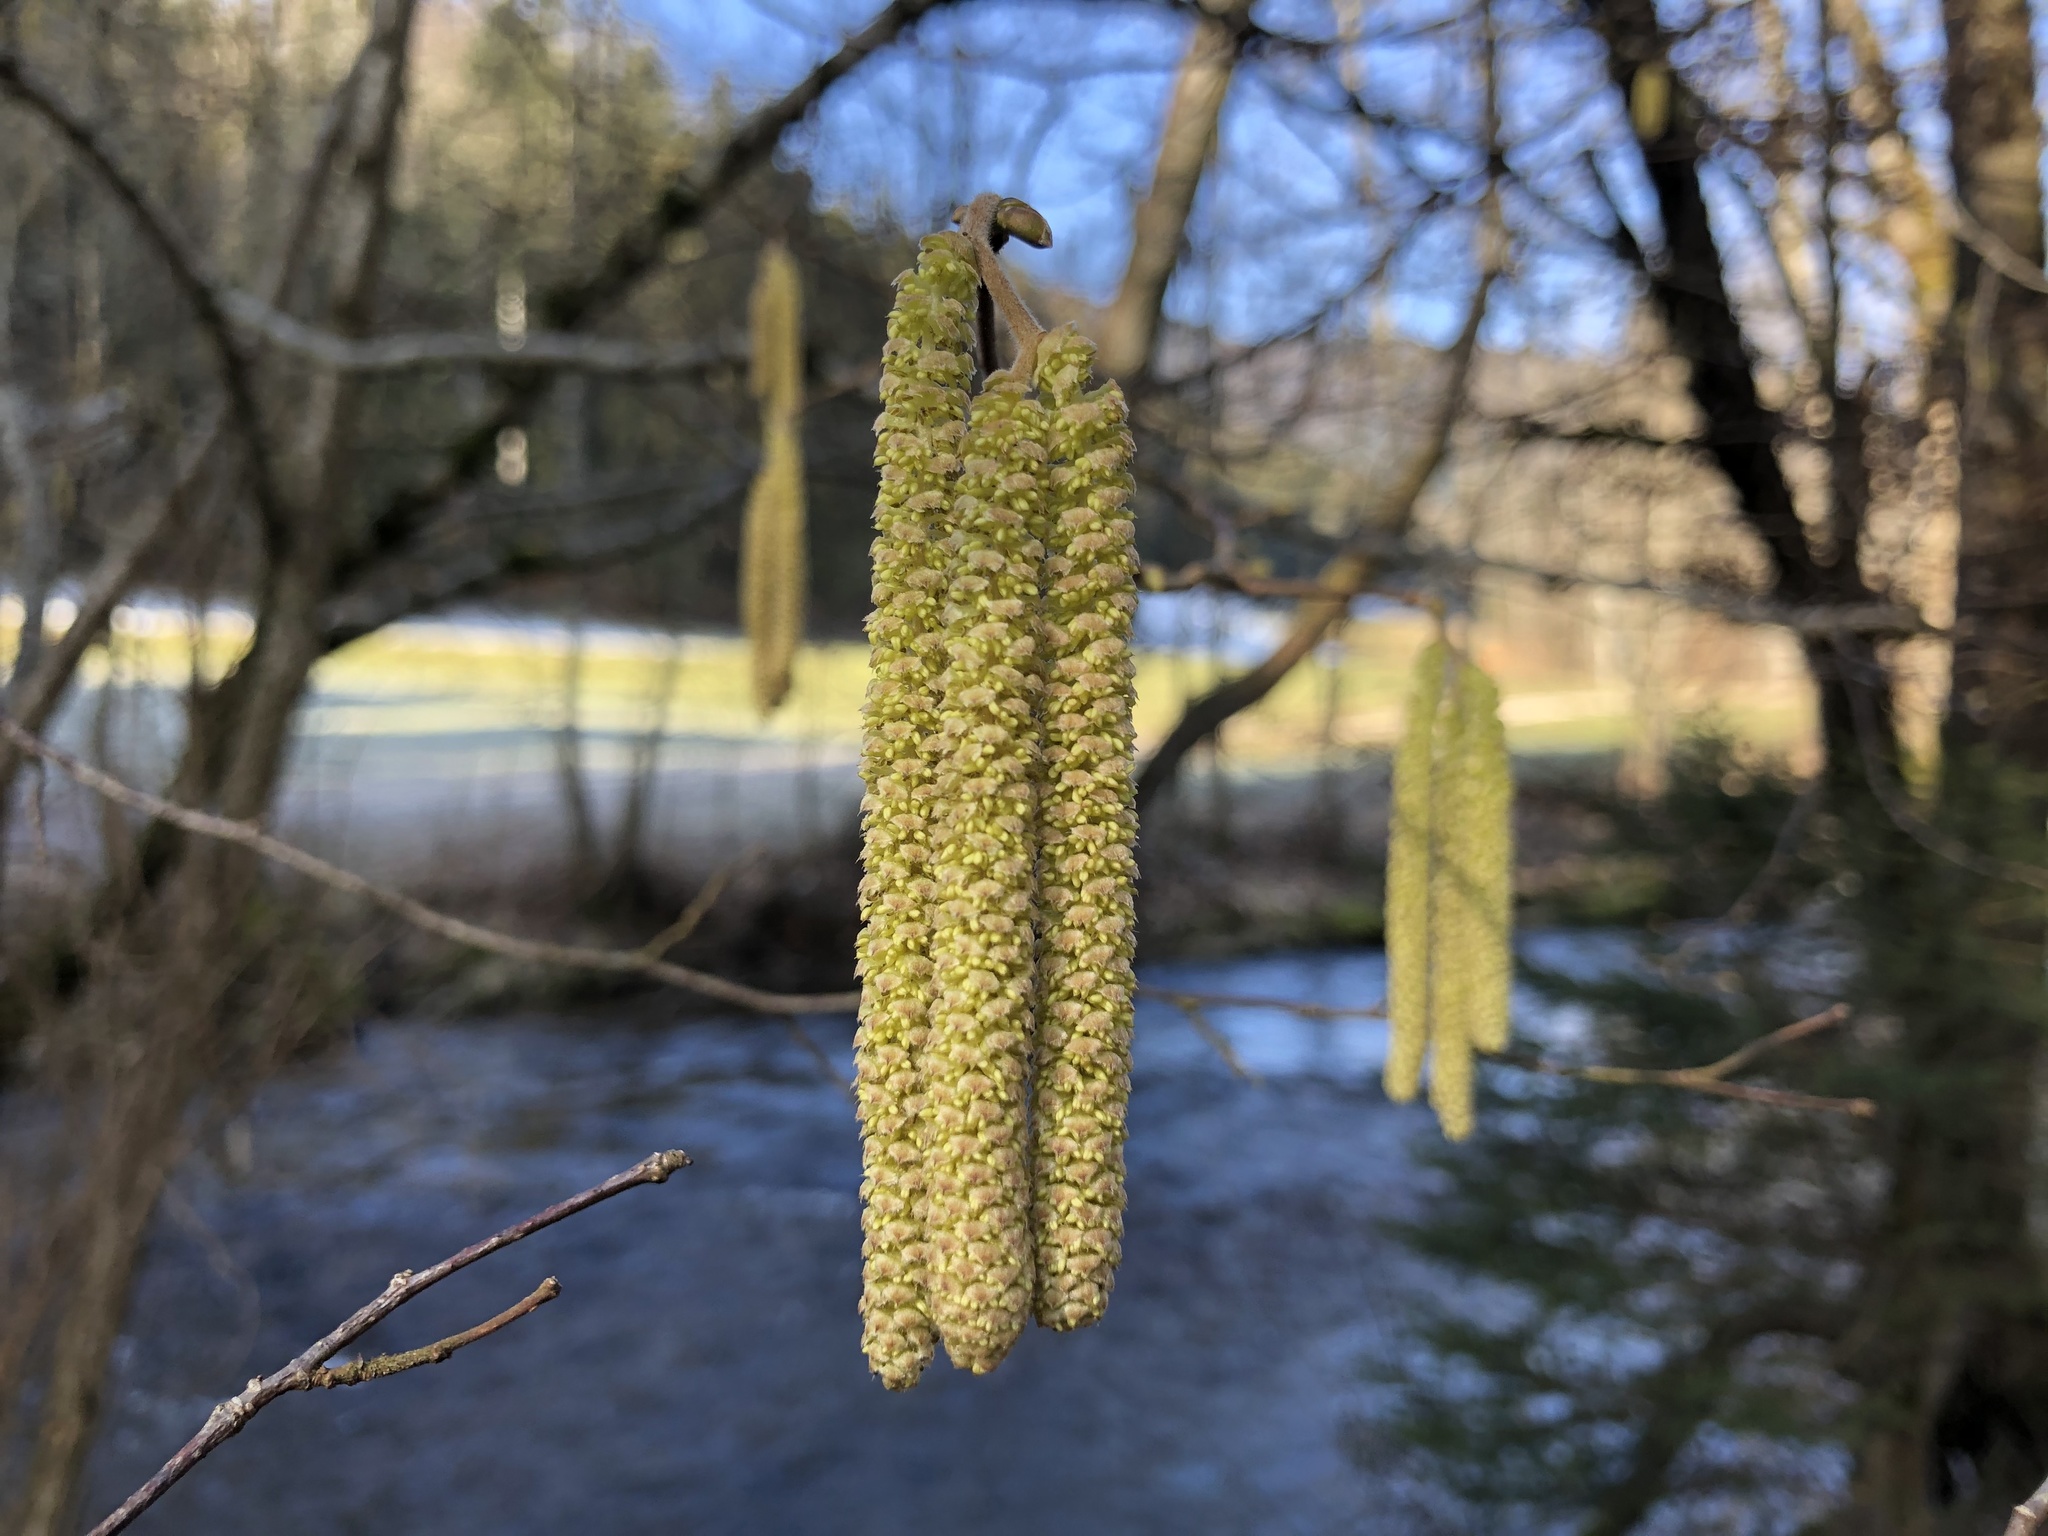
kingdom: Plantae
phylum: Tracheophyta
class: Magnoliopsida
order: Fagales
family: Betulaceae
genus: Corylus
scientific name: Corylus avellana
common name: European hazel
